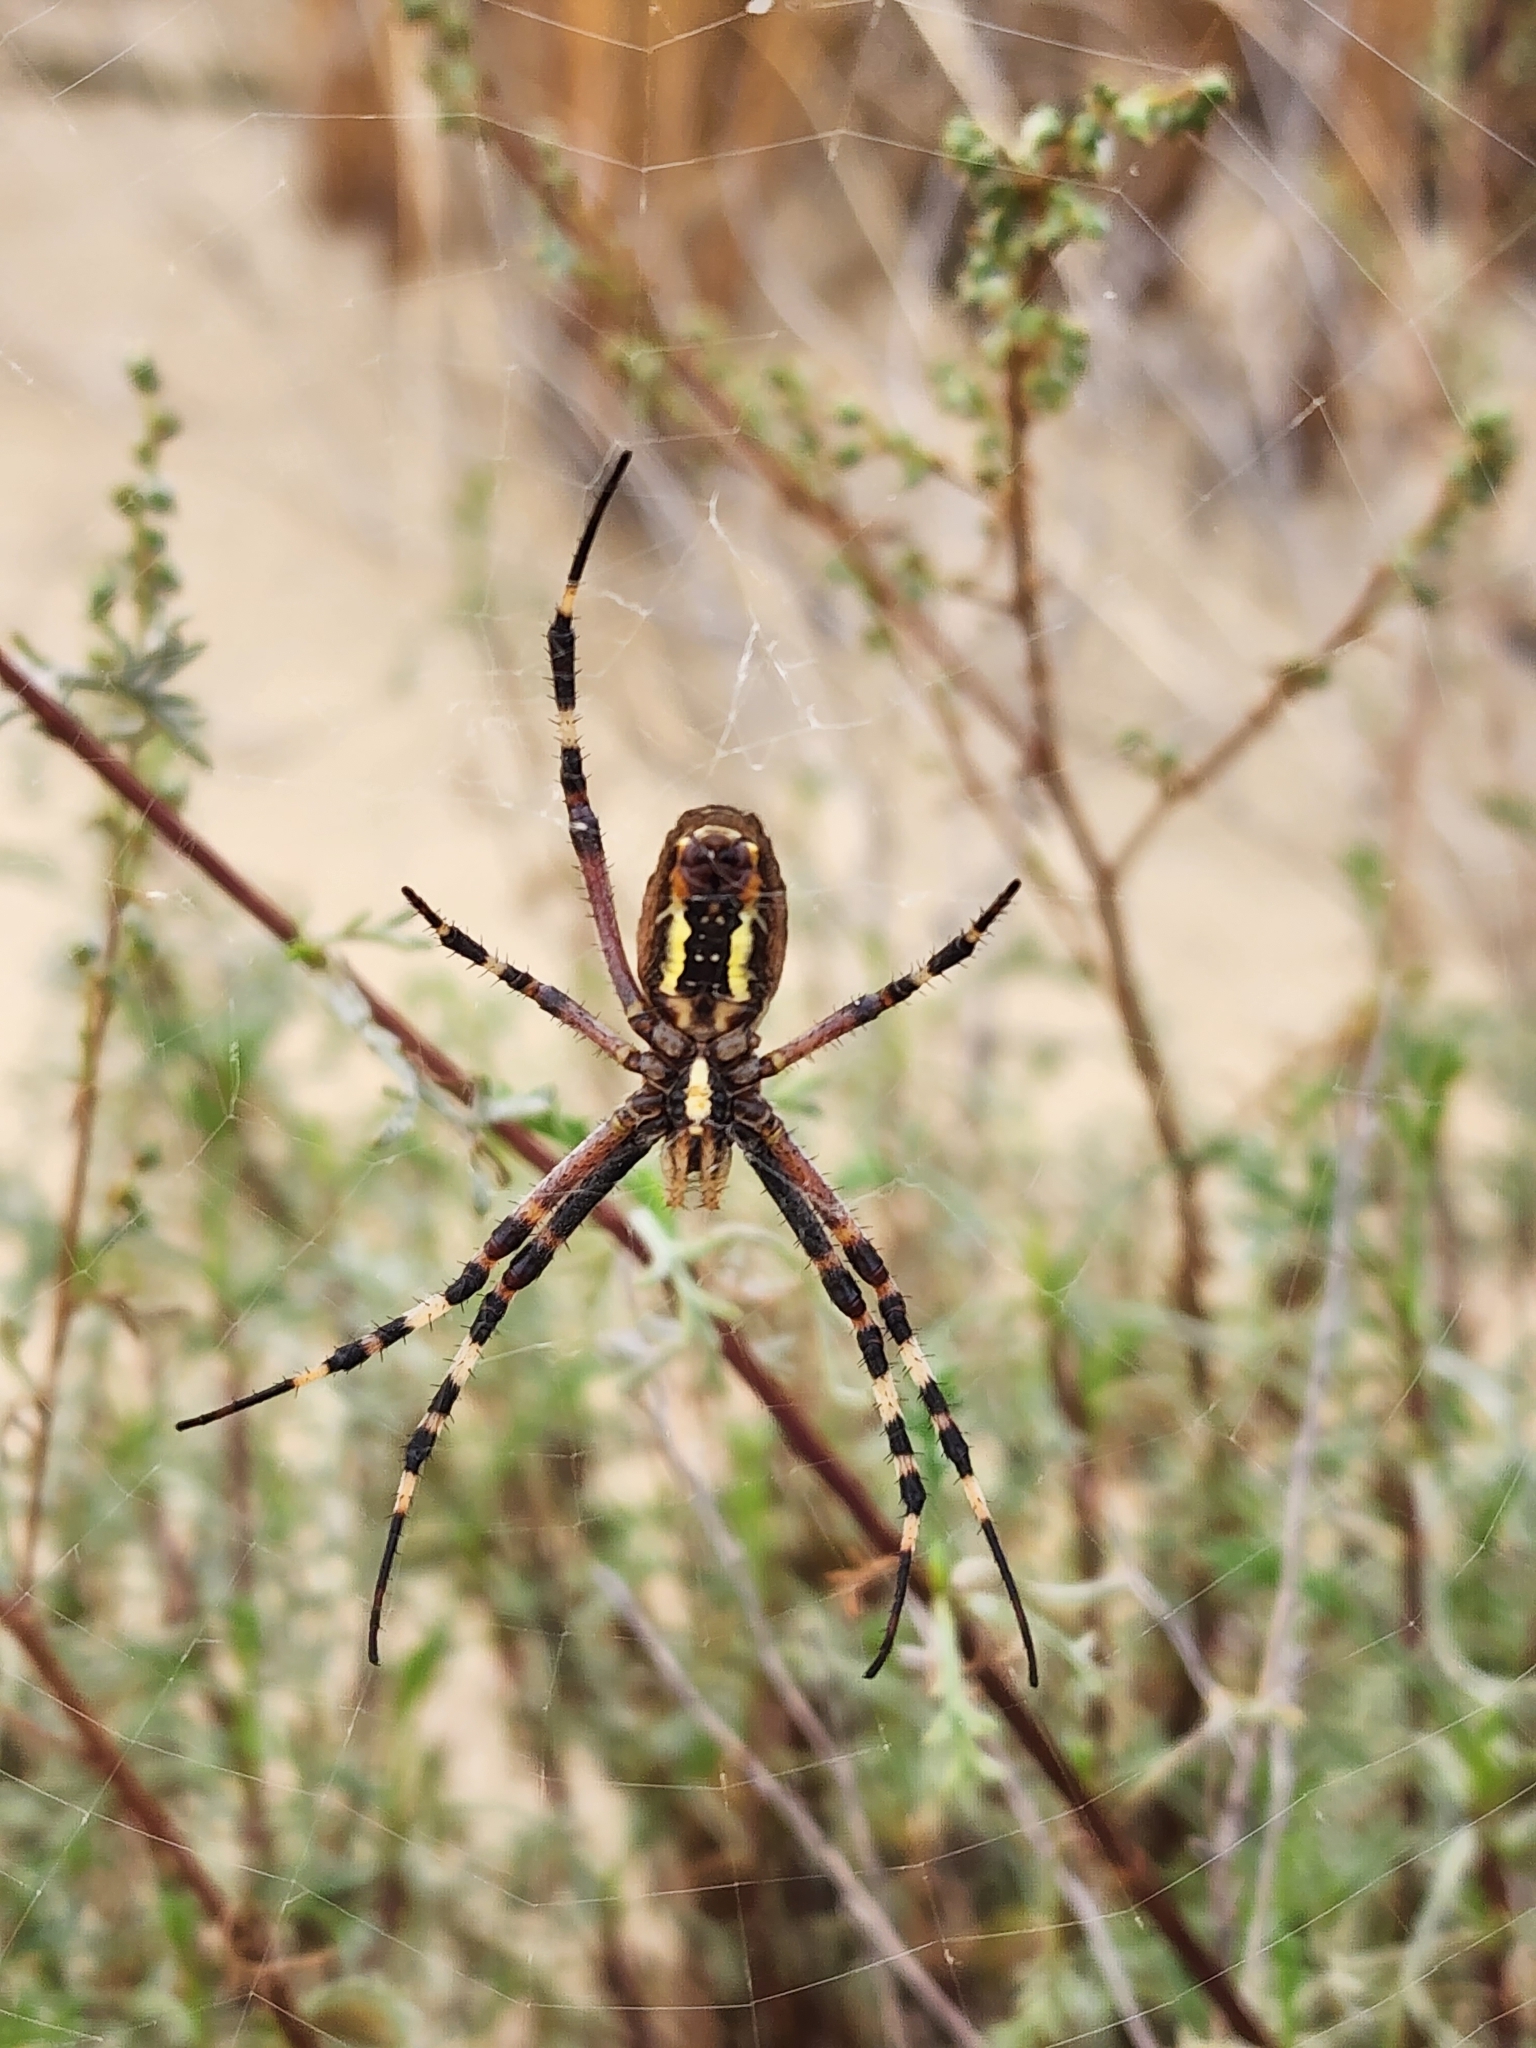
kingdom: Animalia
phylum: Arthropoda
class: Arachnida
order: Araneae
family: Araneidae
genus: Argiope
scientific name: Argiope bruennichi
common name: Wasp spider
